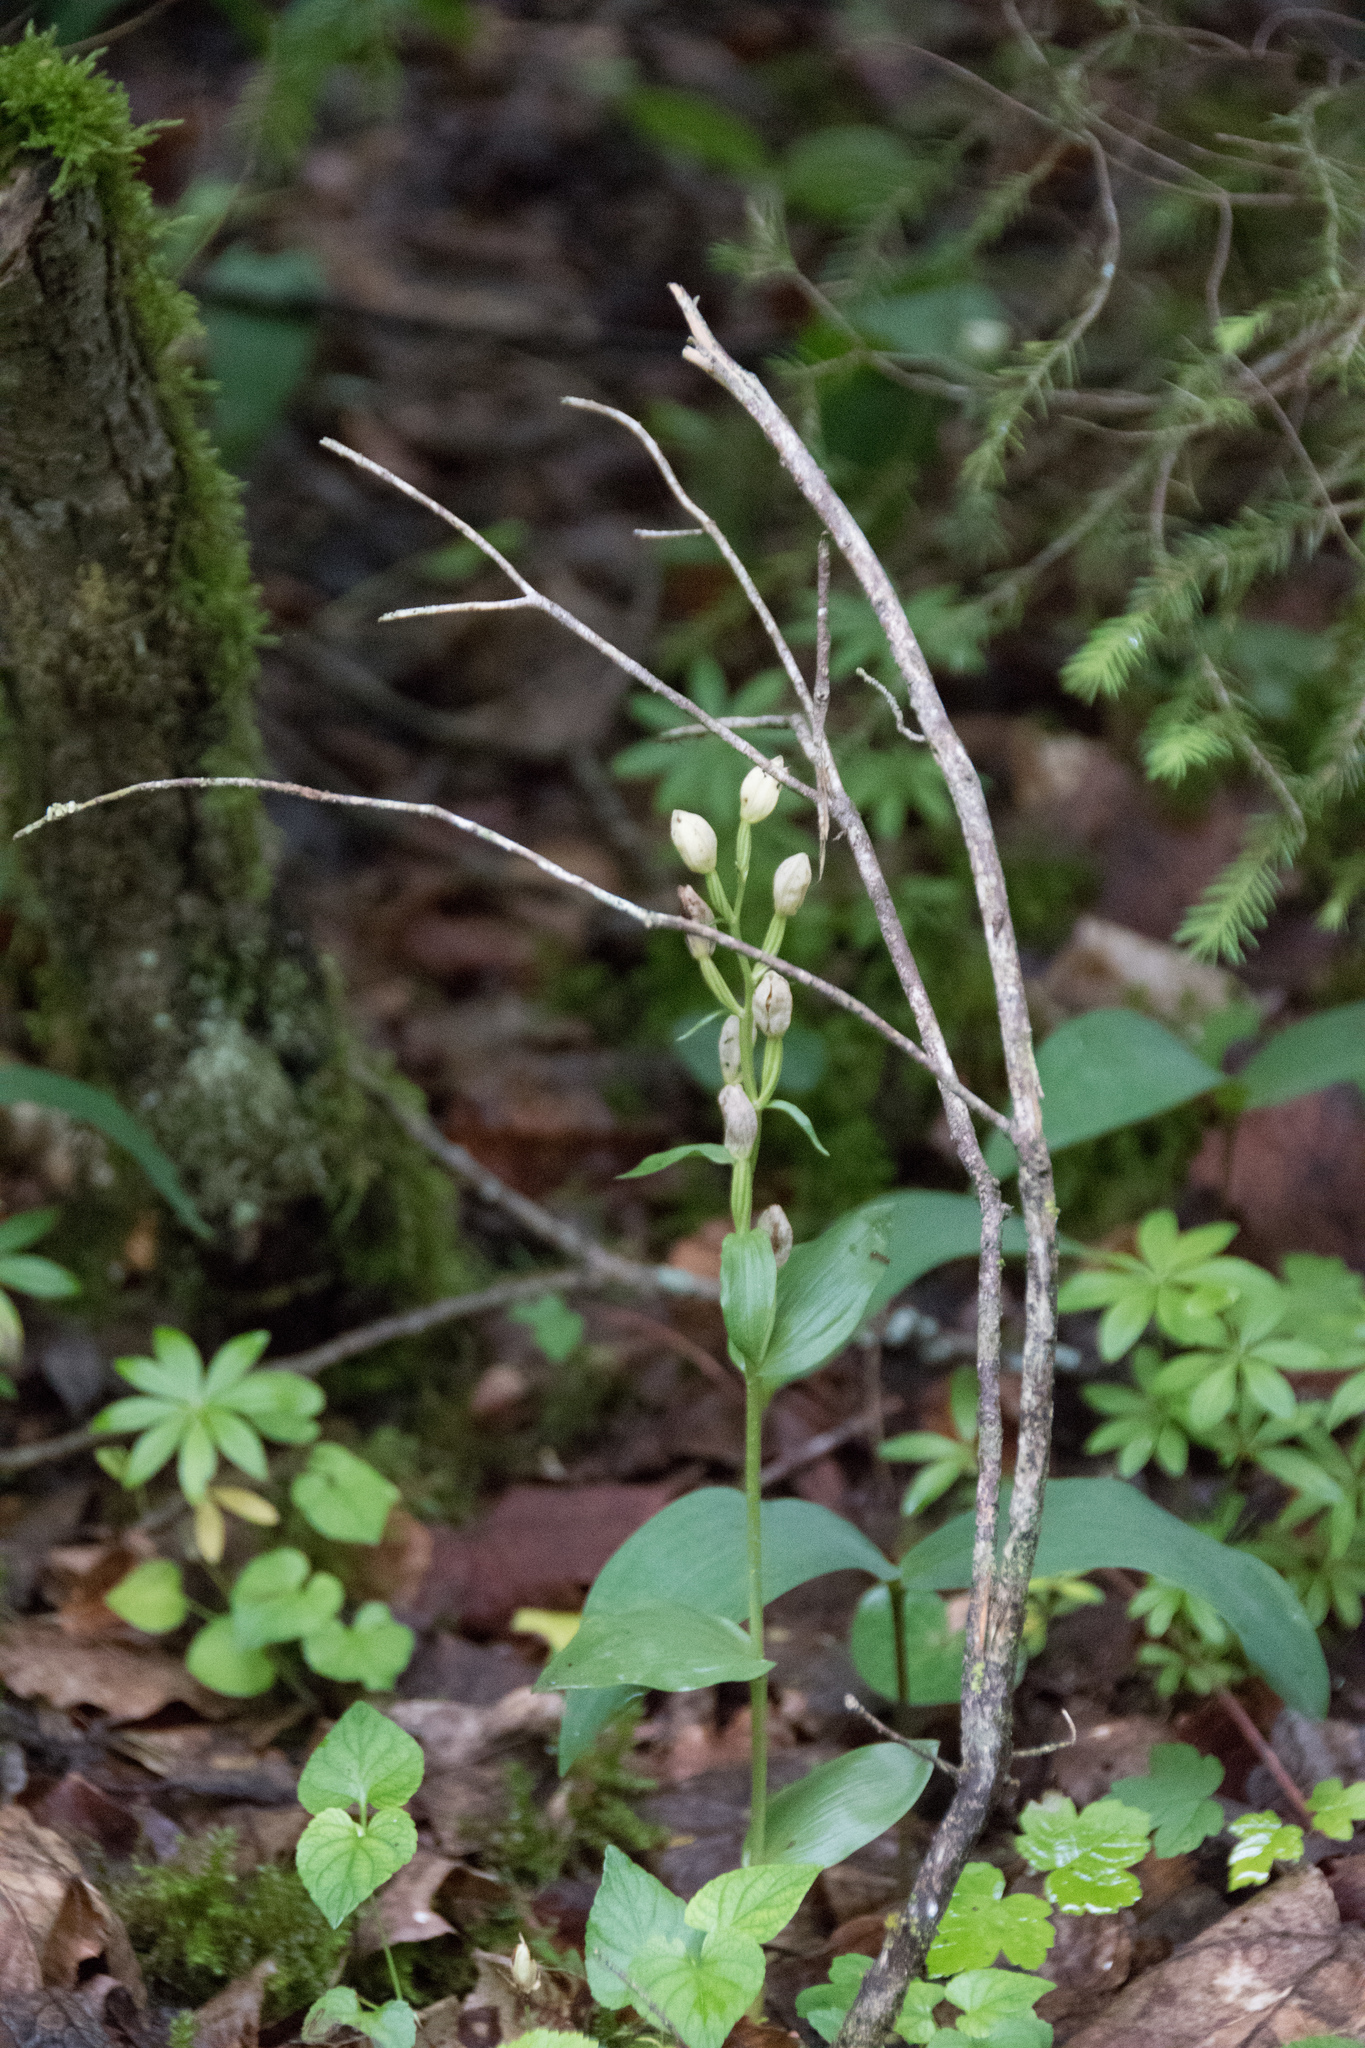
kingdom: Plantae
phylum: Tracheophyta
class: Liliopsida
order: Asparagales
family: Orchidaceae
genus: Cephalanthera
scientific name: Cephalanthera damasonium
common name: White helleborine
